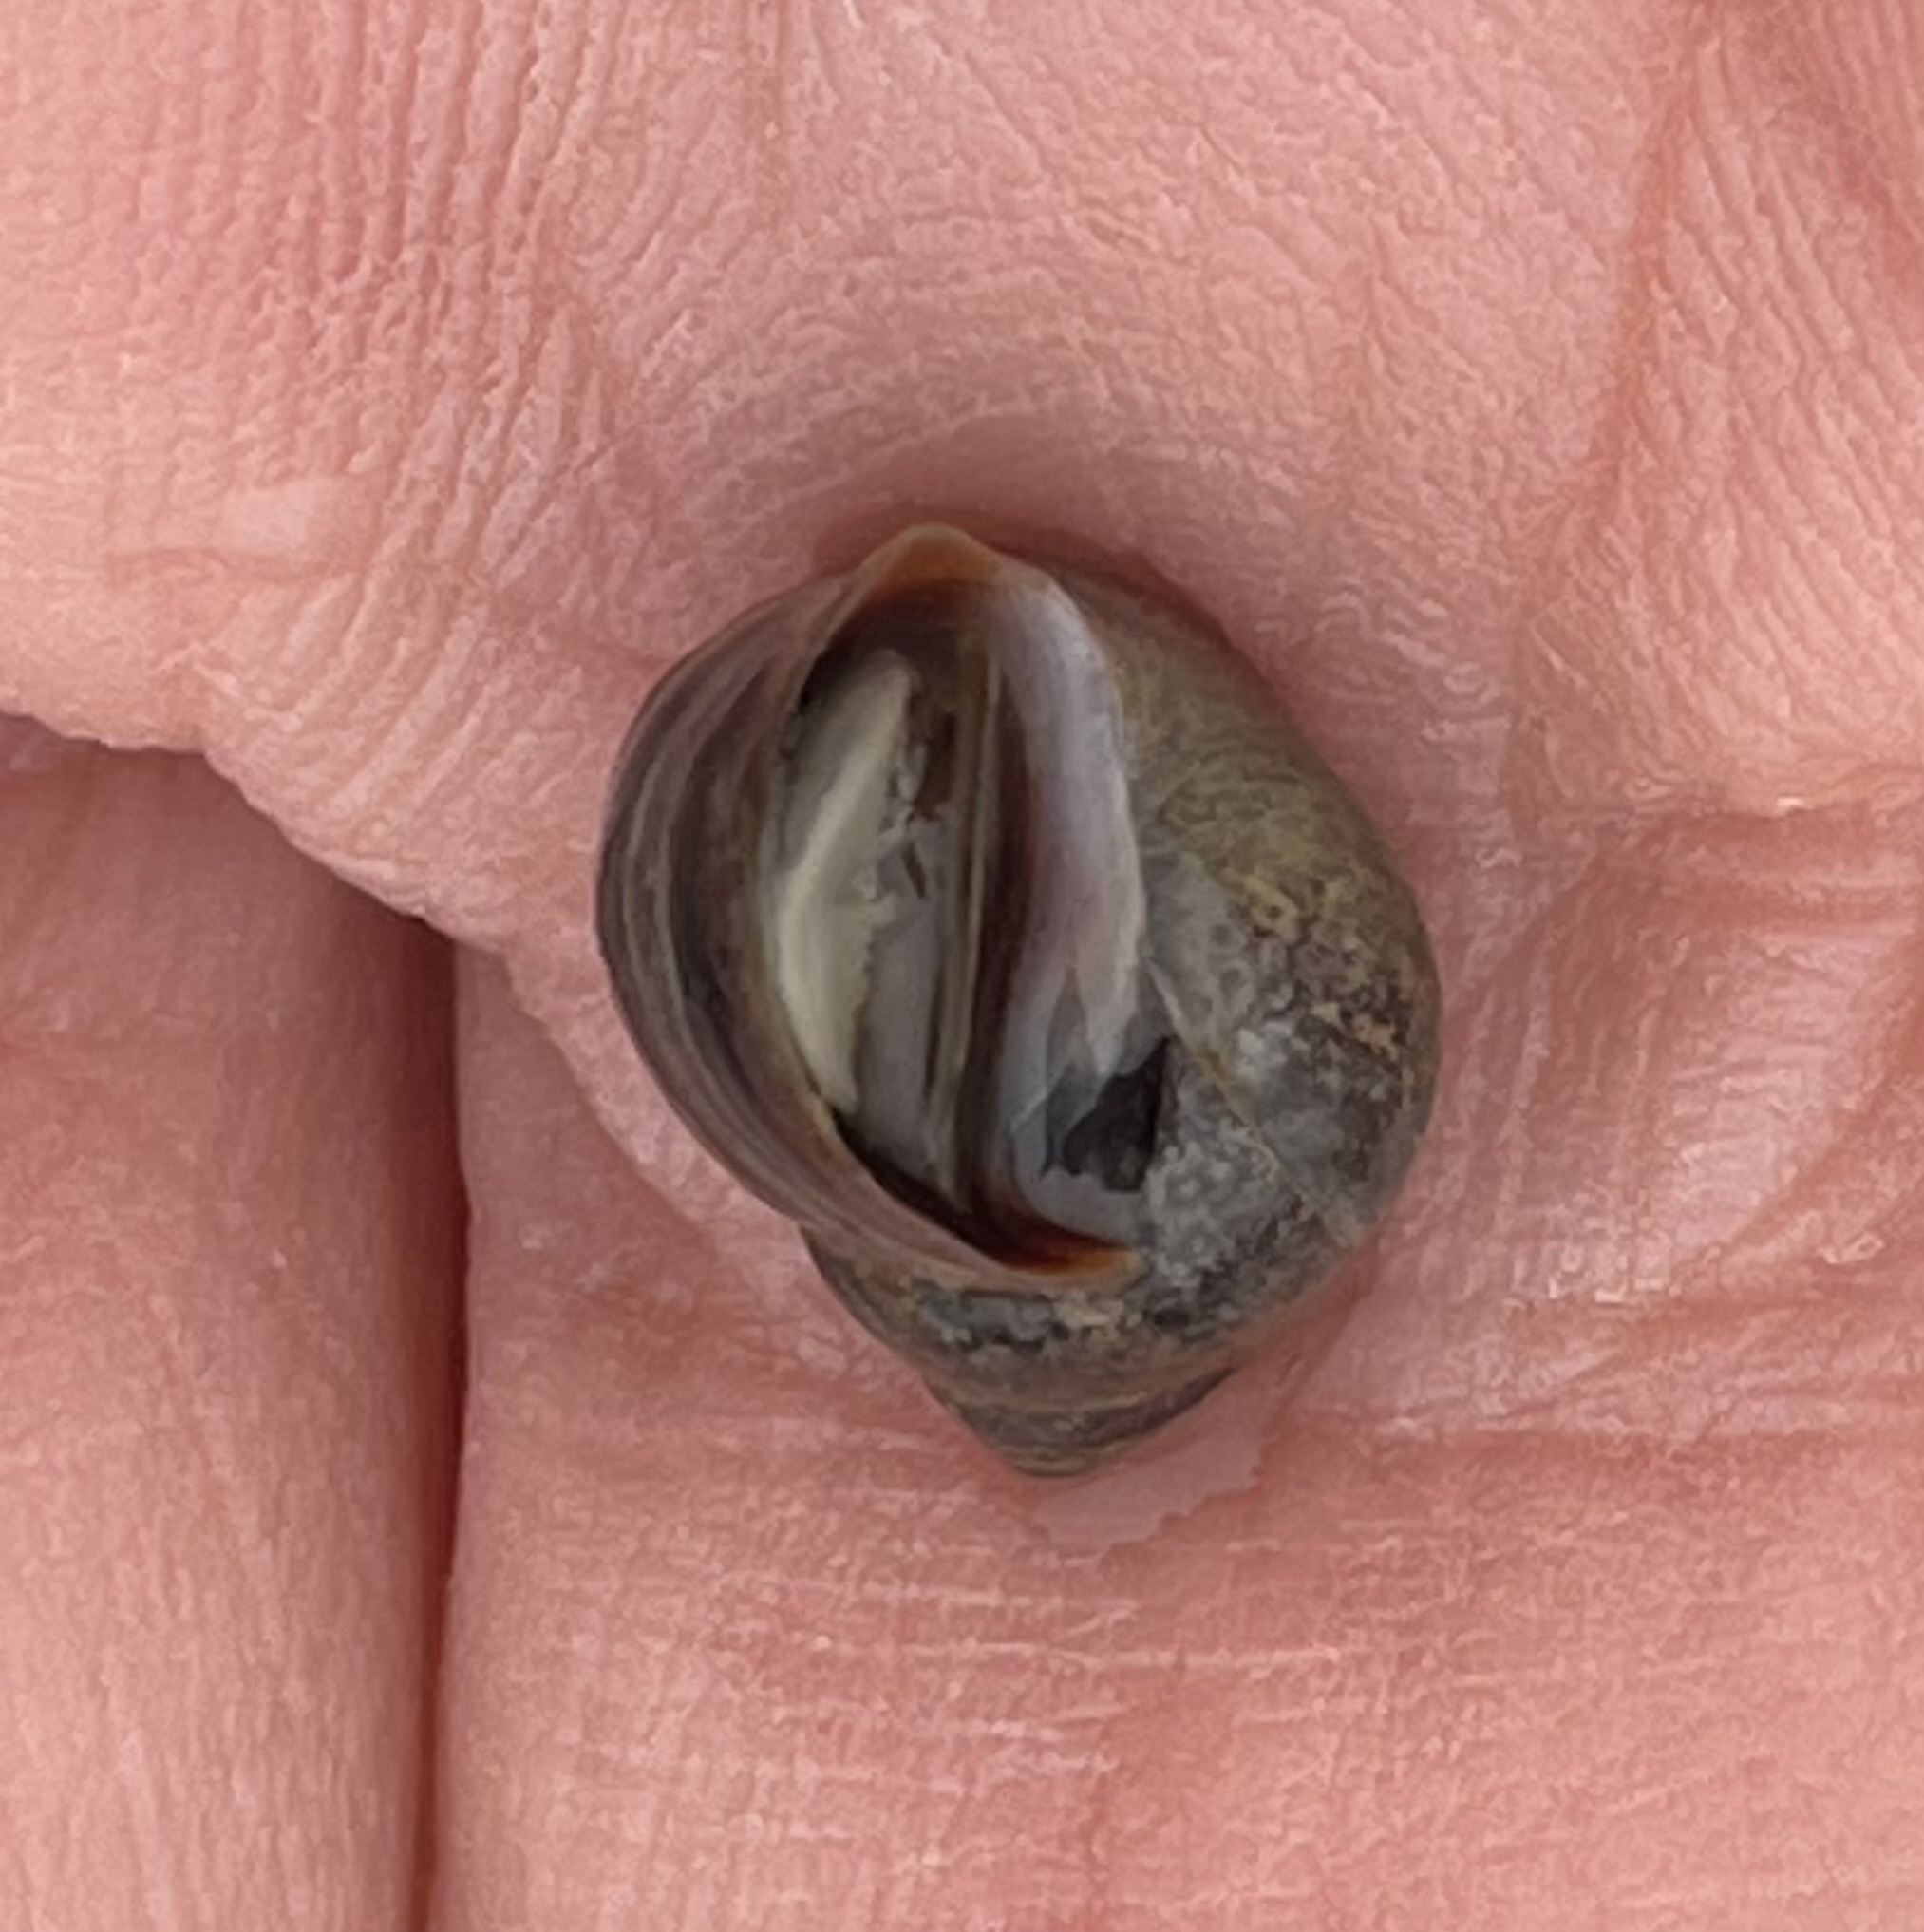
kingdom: Animalia
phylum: Mollusca
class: Gastropoda
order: Littorinimorpha
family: Littorinidae
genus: Littorina
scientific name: Littorina saxatilis
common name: Black-lined periwinkle
